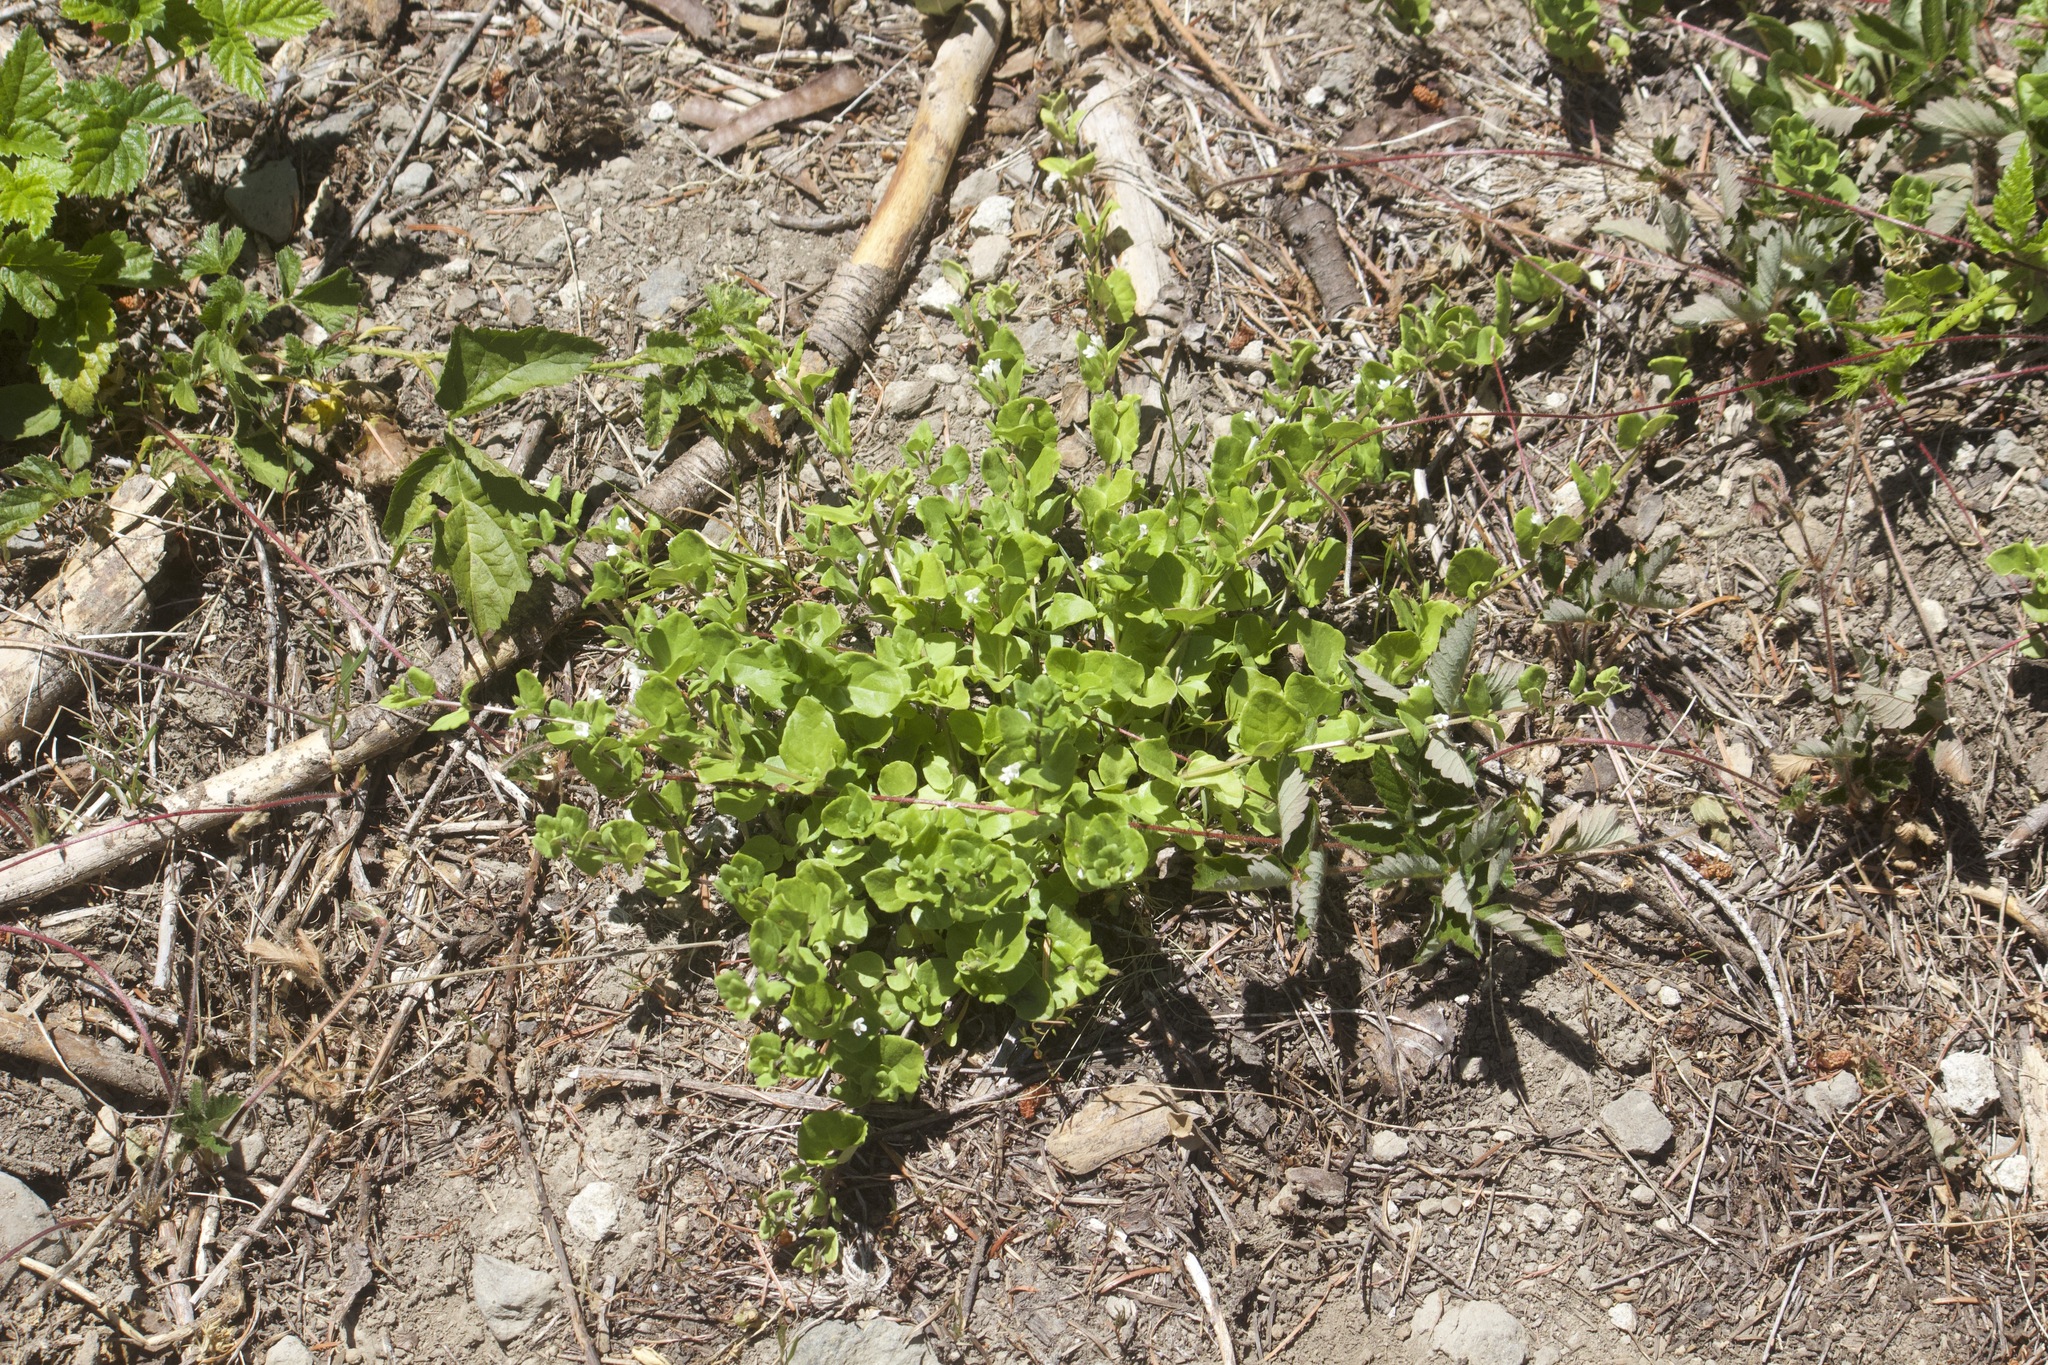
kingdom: Plantae
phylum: Tracheophyta
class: Magnoliopsida
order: Lamiales
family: Lamiaceae
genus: Micromeria
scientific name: Micromeria douglasii
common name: Yerba buena
